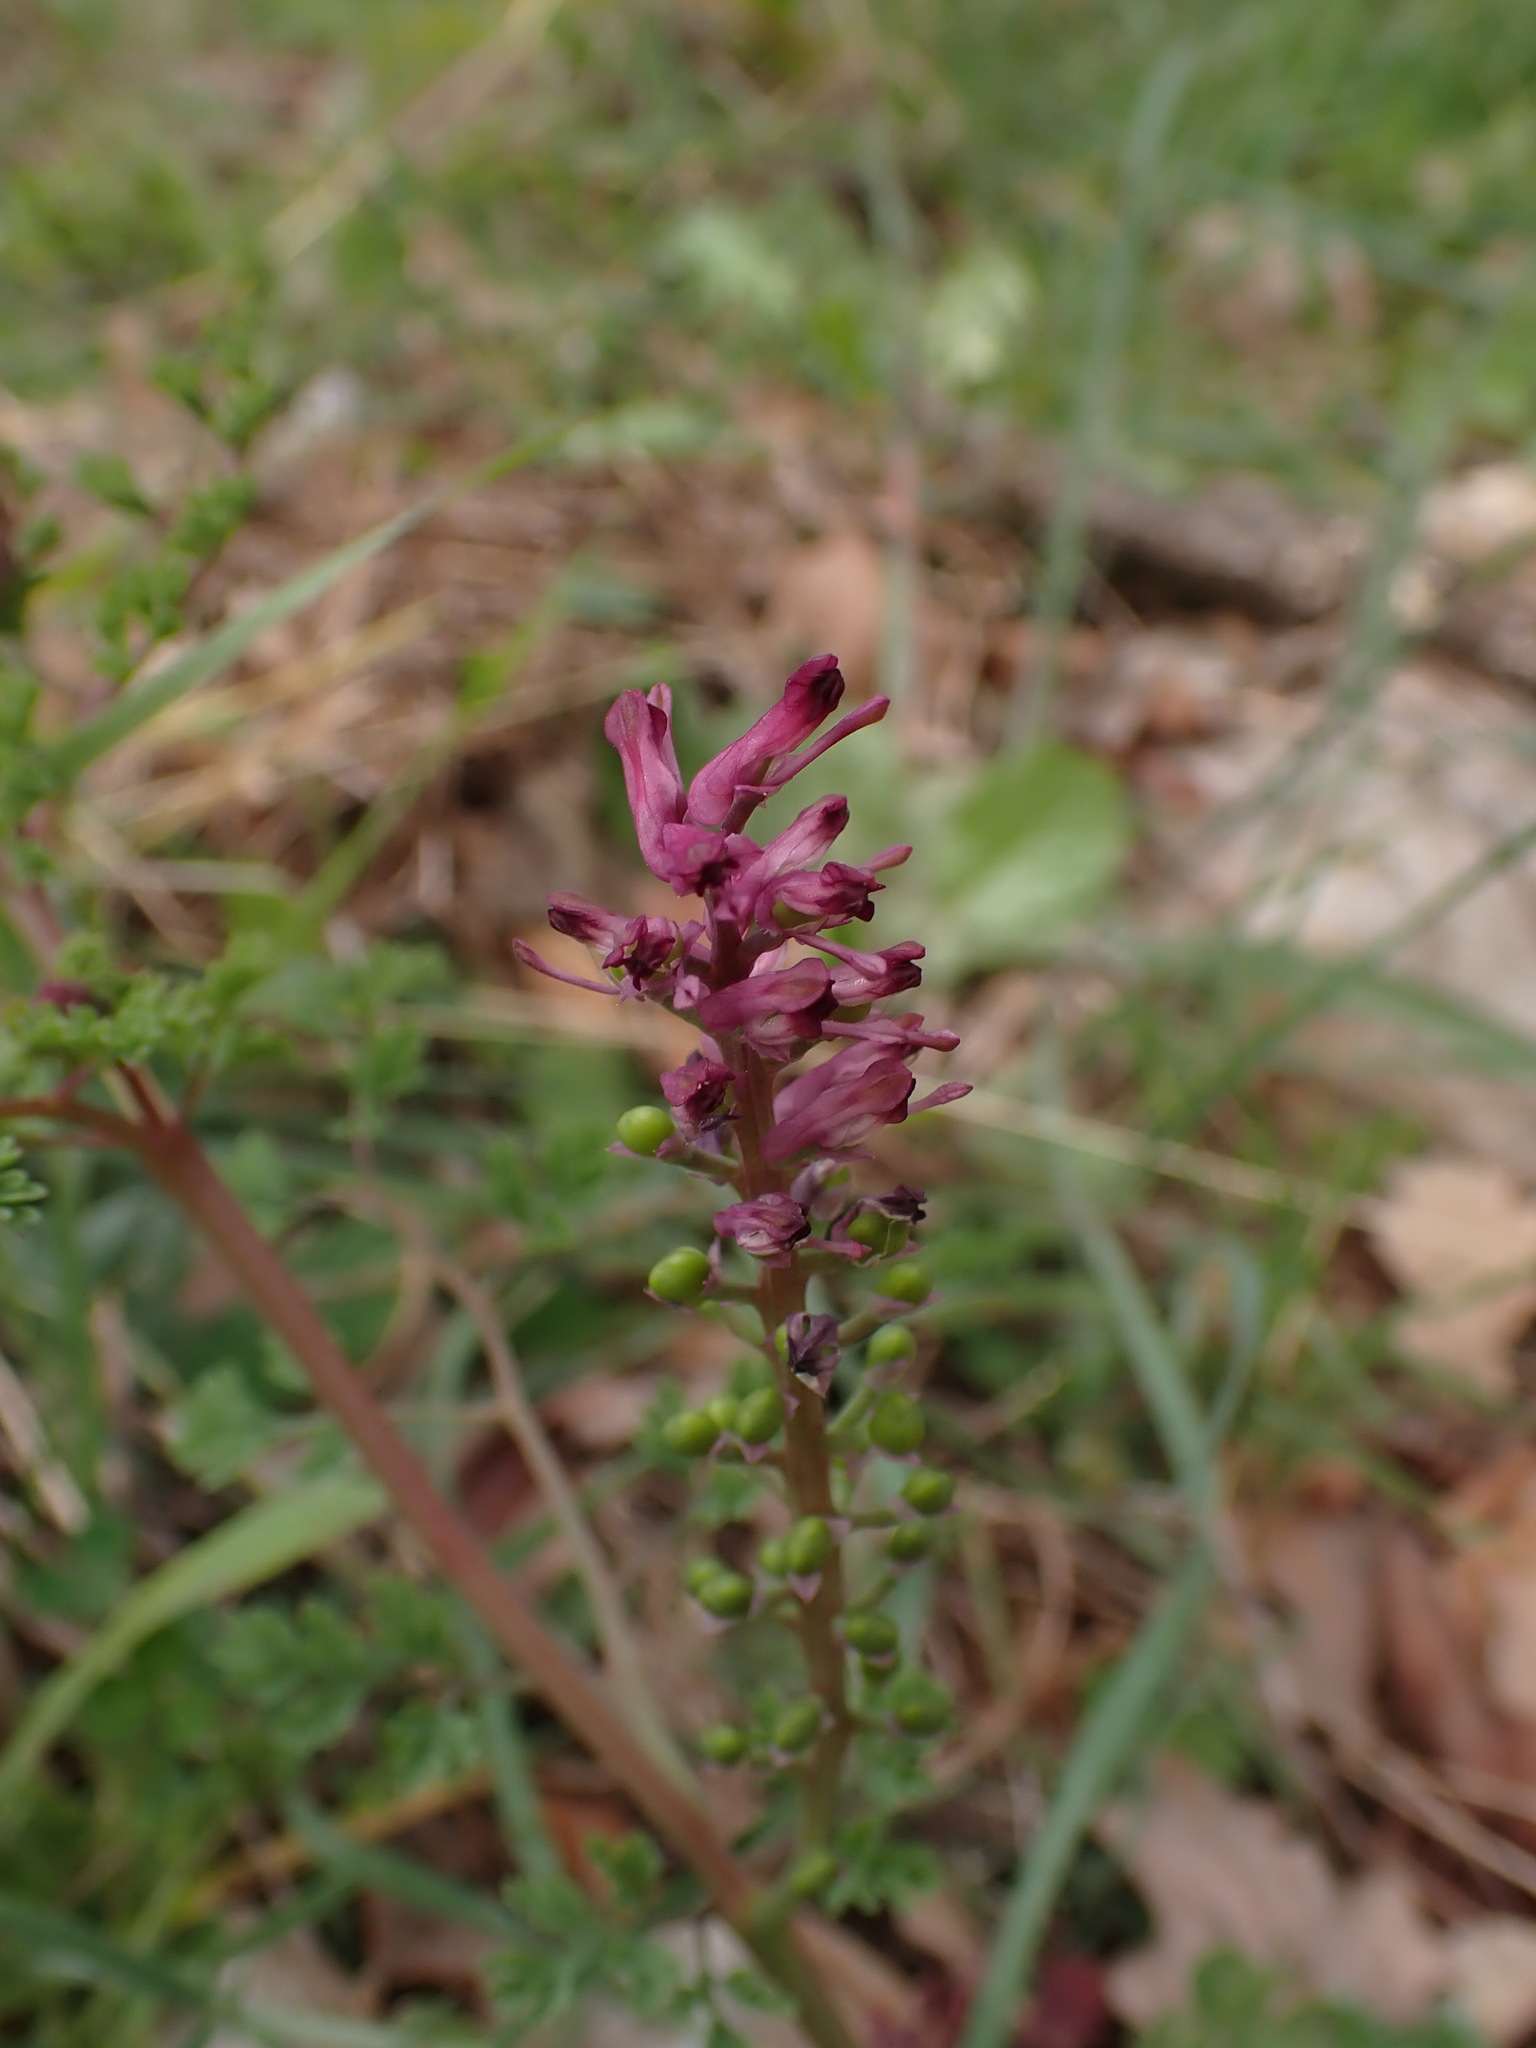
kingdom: Plantae
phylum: Tracheophyta
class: Magnoliopsida
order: Ranunculales
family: Papaveraceae
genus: Fumaria
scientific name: Fumaria officinalis
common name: Common fumitory
